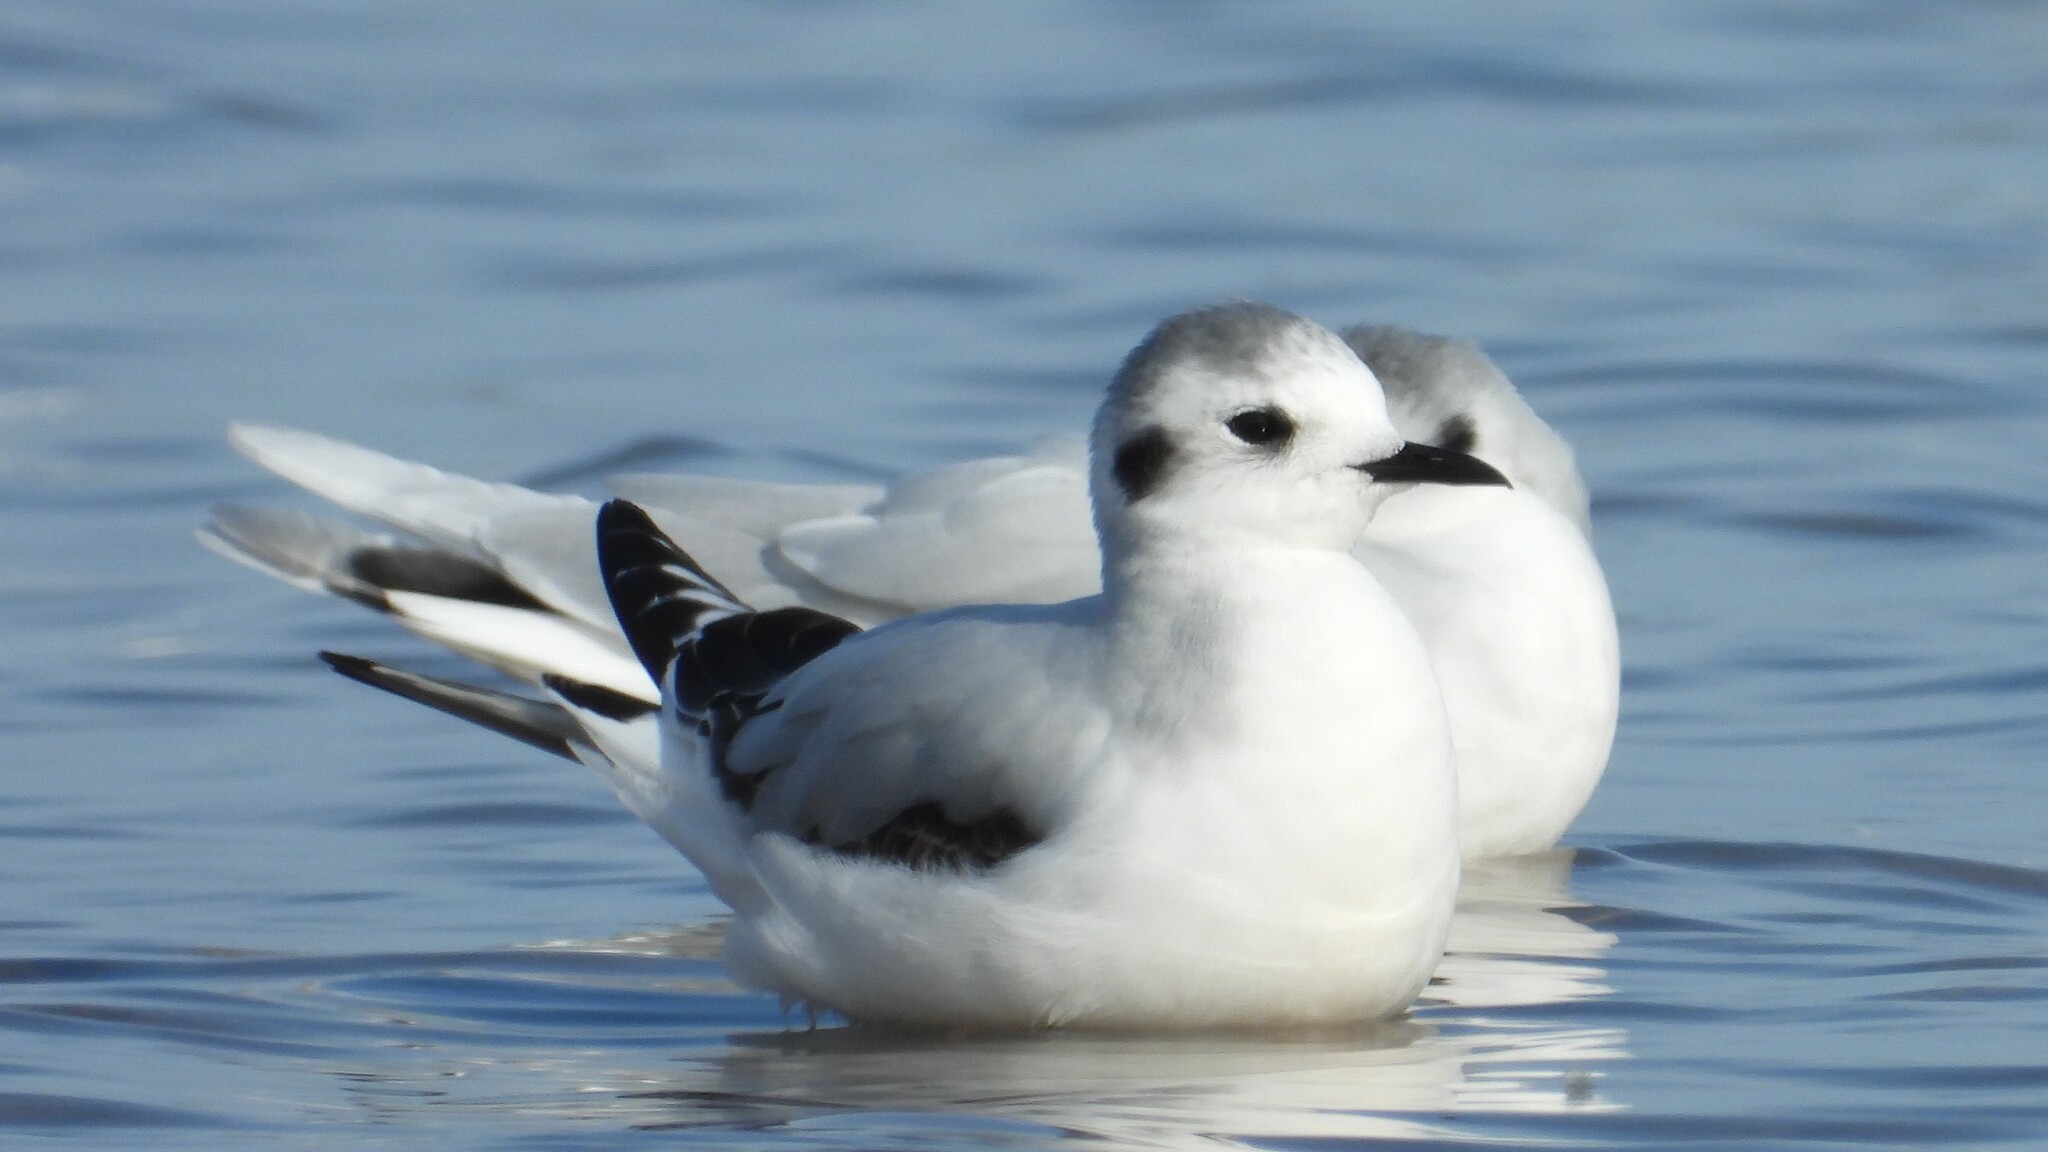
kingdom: Animalia
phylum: Chordata
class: Aves
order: Charadriiformes
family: Laridae
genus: Hydrocoloeus
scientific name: Hydrocoloeus minutus
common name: Little gull
